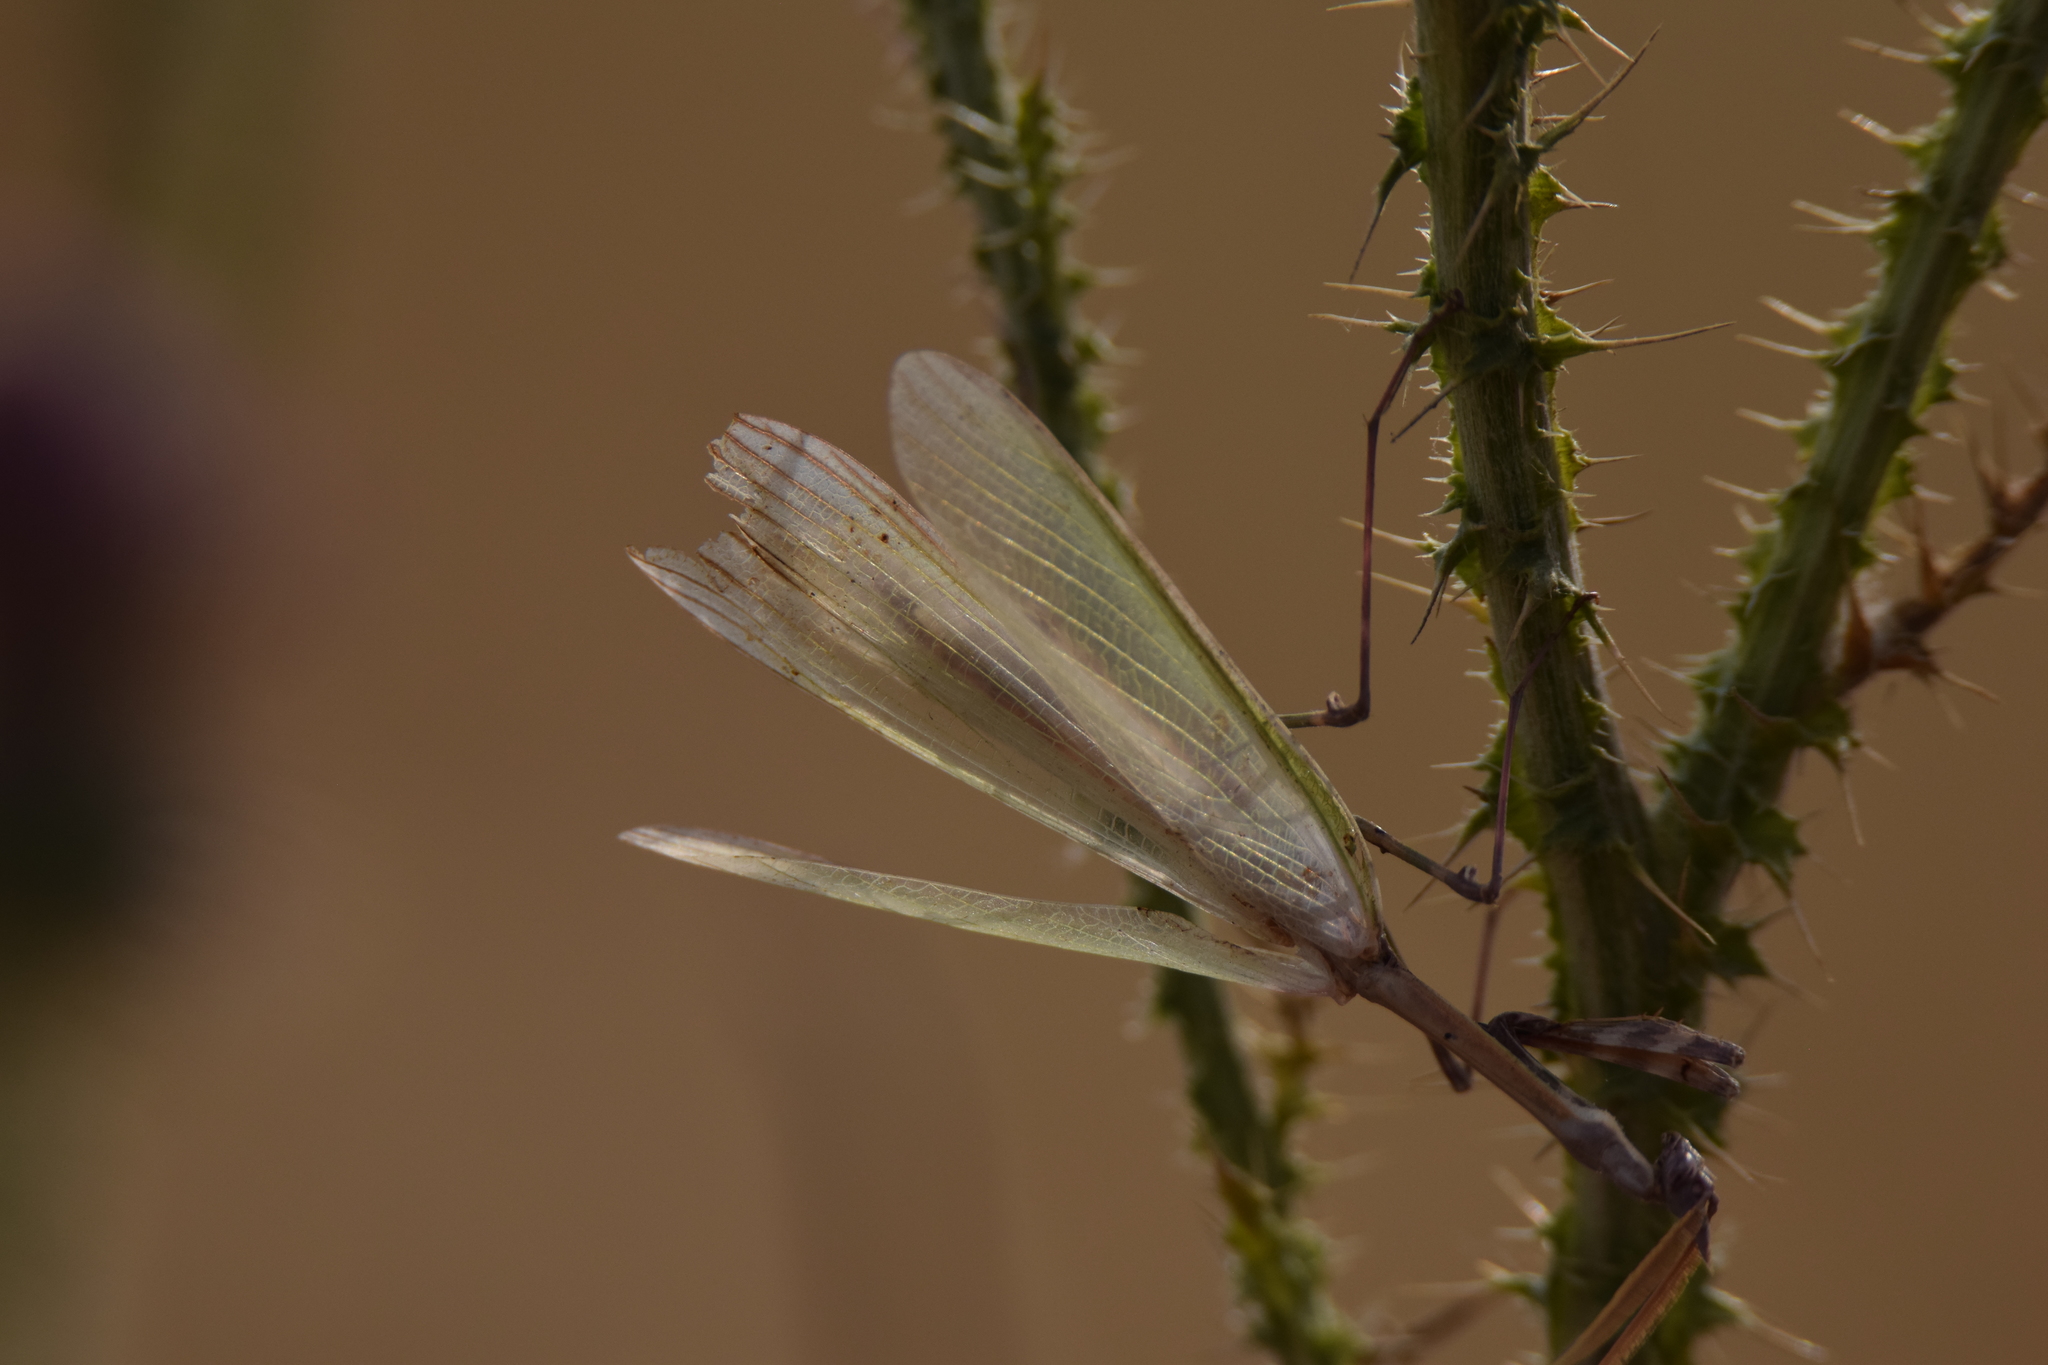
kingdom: Animalia
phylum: Arthropoda
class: Insecta
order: Mantodea
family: Empusidae
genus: Empusa
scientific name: Empusa pennata
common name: Conehead mantis
